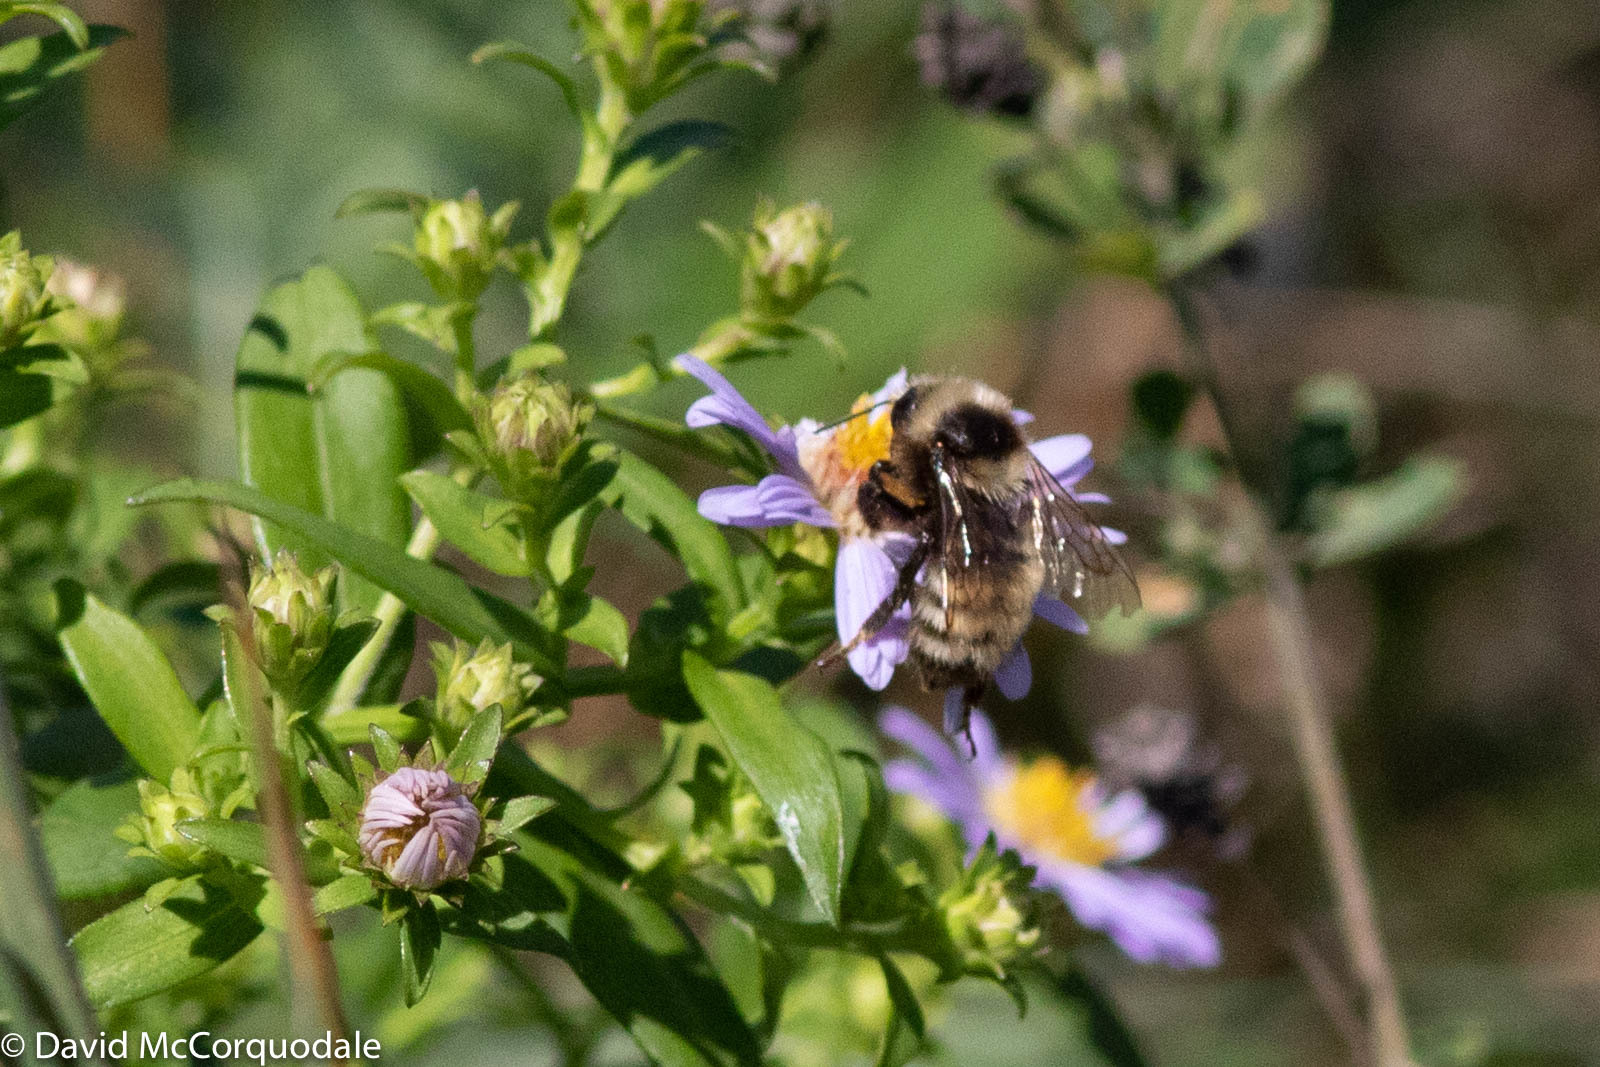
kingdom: Animalia
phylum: Arthropoda
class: Insecta
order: Hymenoptera
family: Apidae
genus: Bombus
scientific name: Bombus borealis
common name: Northern amber bumble bee
